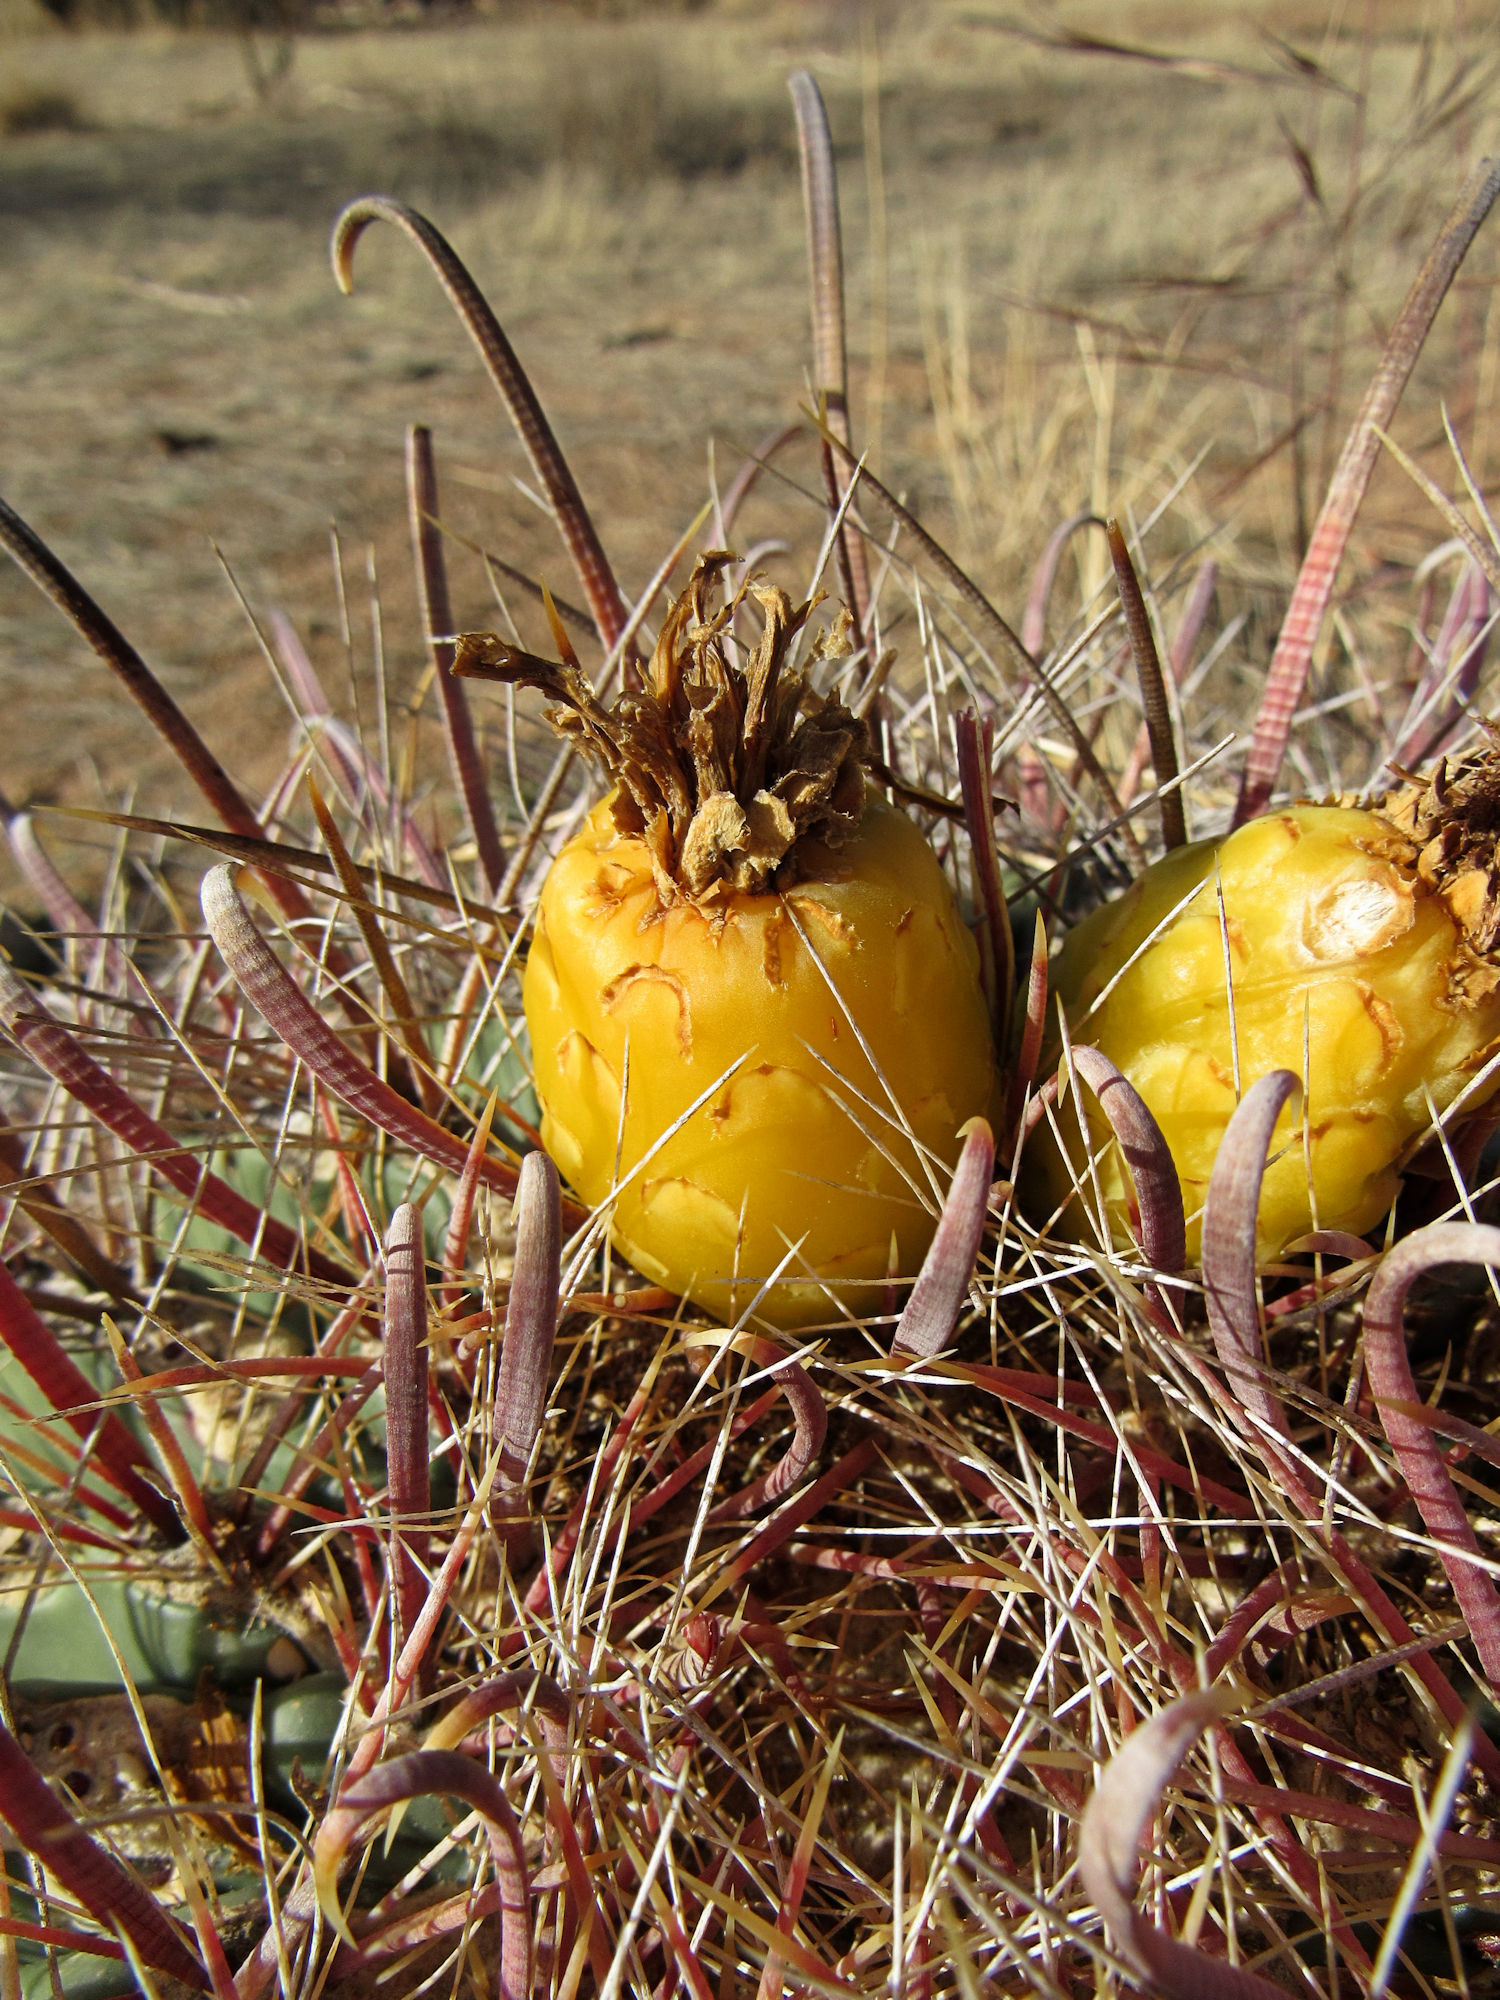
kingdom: Plantae
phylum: Tracheophyta
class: Magnoliopsida
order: Caryophyllales
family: Cactaceae
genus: Ferocactus
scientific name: Ferocactus wislizeni
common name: Candy barrel cactus
